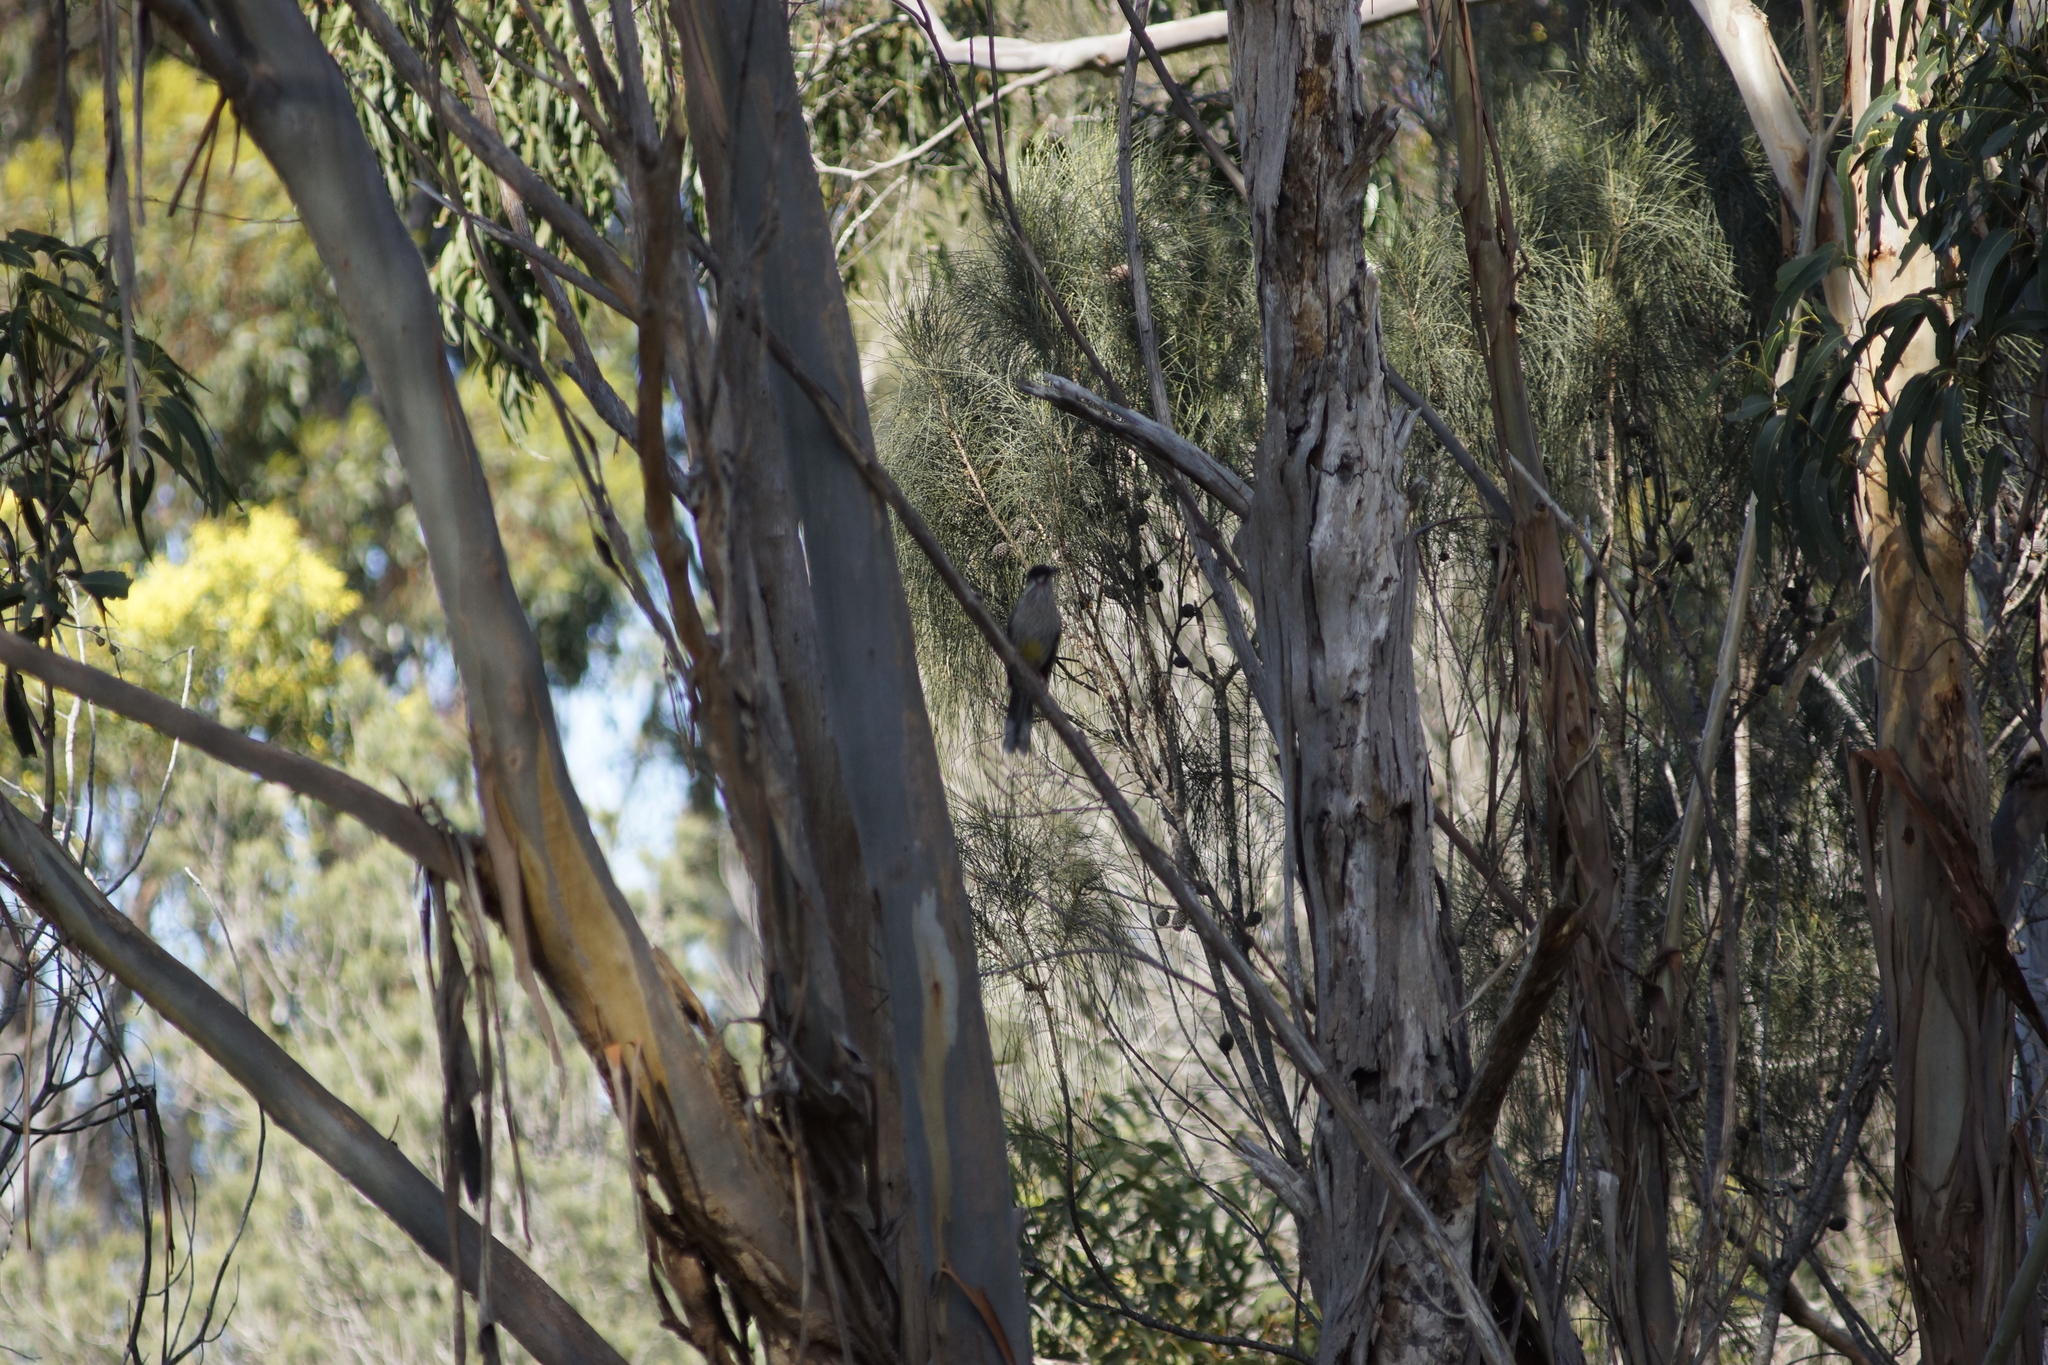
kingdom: Animalia
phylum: Chordata
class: Aves
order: Passeriformes
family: Meliphagidae
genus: Anthochaera
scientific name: Anthochaera carunculata
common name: Red wattlebird
